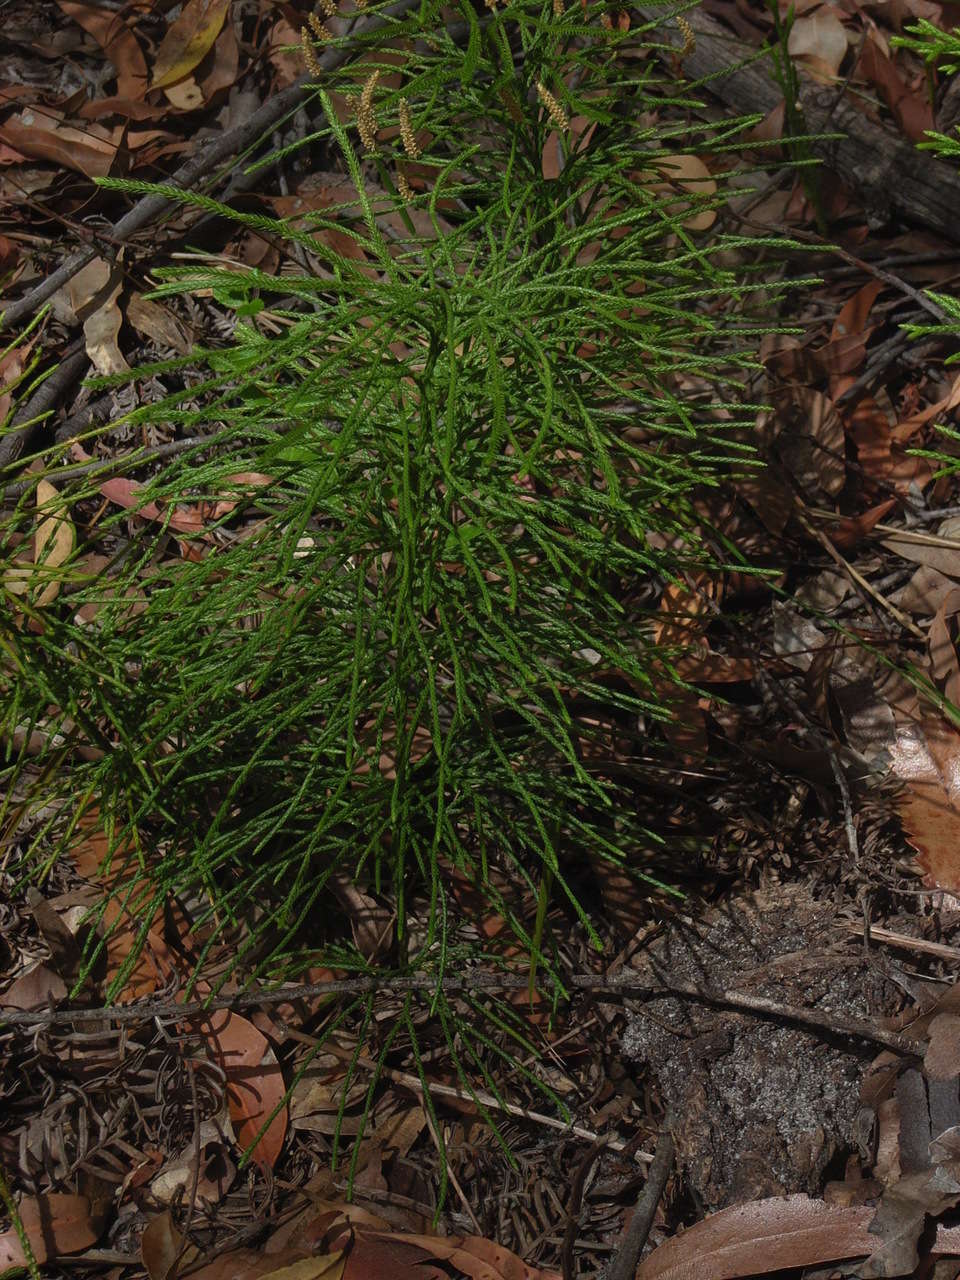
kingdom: Plantae
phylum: Tracheophyta
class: Lycopodiopsida
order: Lycopodiales
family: Lycopodiaceae
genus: Pseudolycopodium
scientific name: Pseudolycopodium densum
